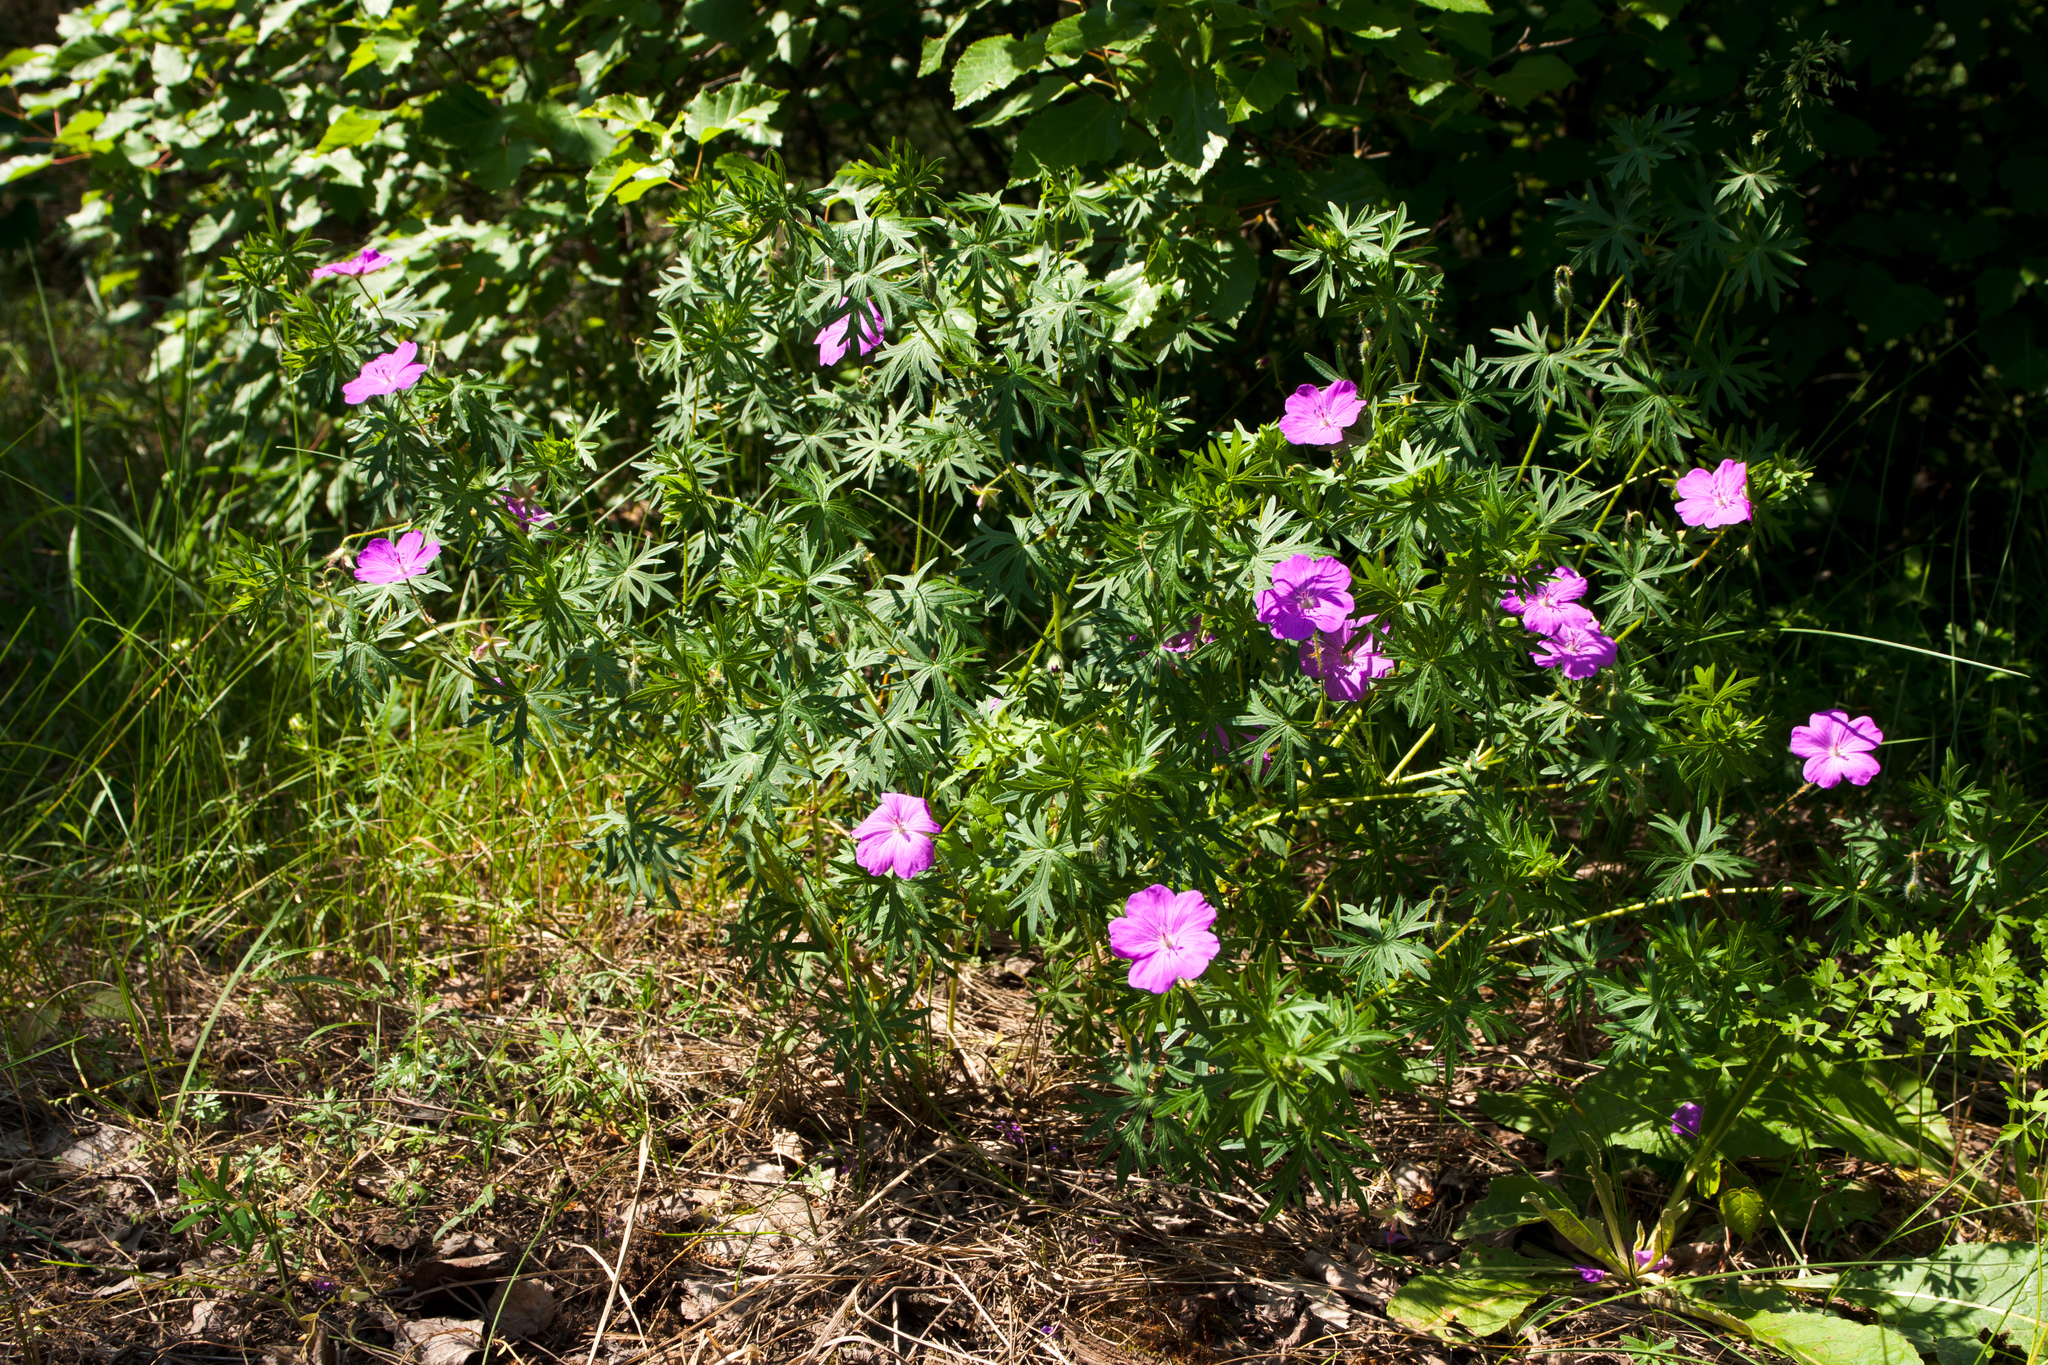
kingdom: Plantae
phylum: Tracheophyta
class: Magnoliopsida
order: Geraniales
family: Geraniaceae
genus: Geranium
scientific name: Geranium sanguineum
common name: Bloody crane's-bill
